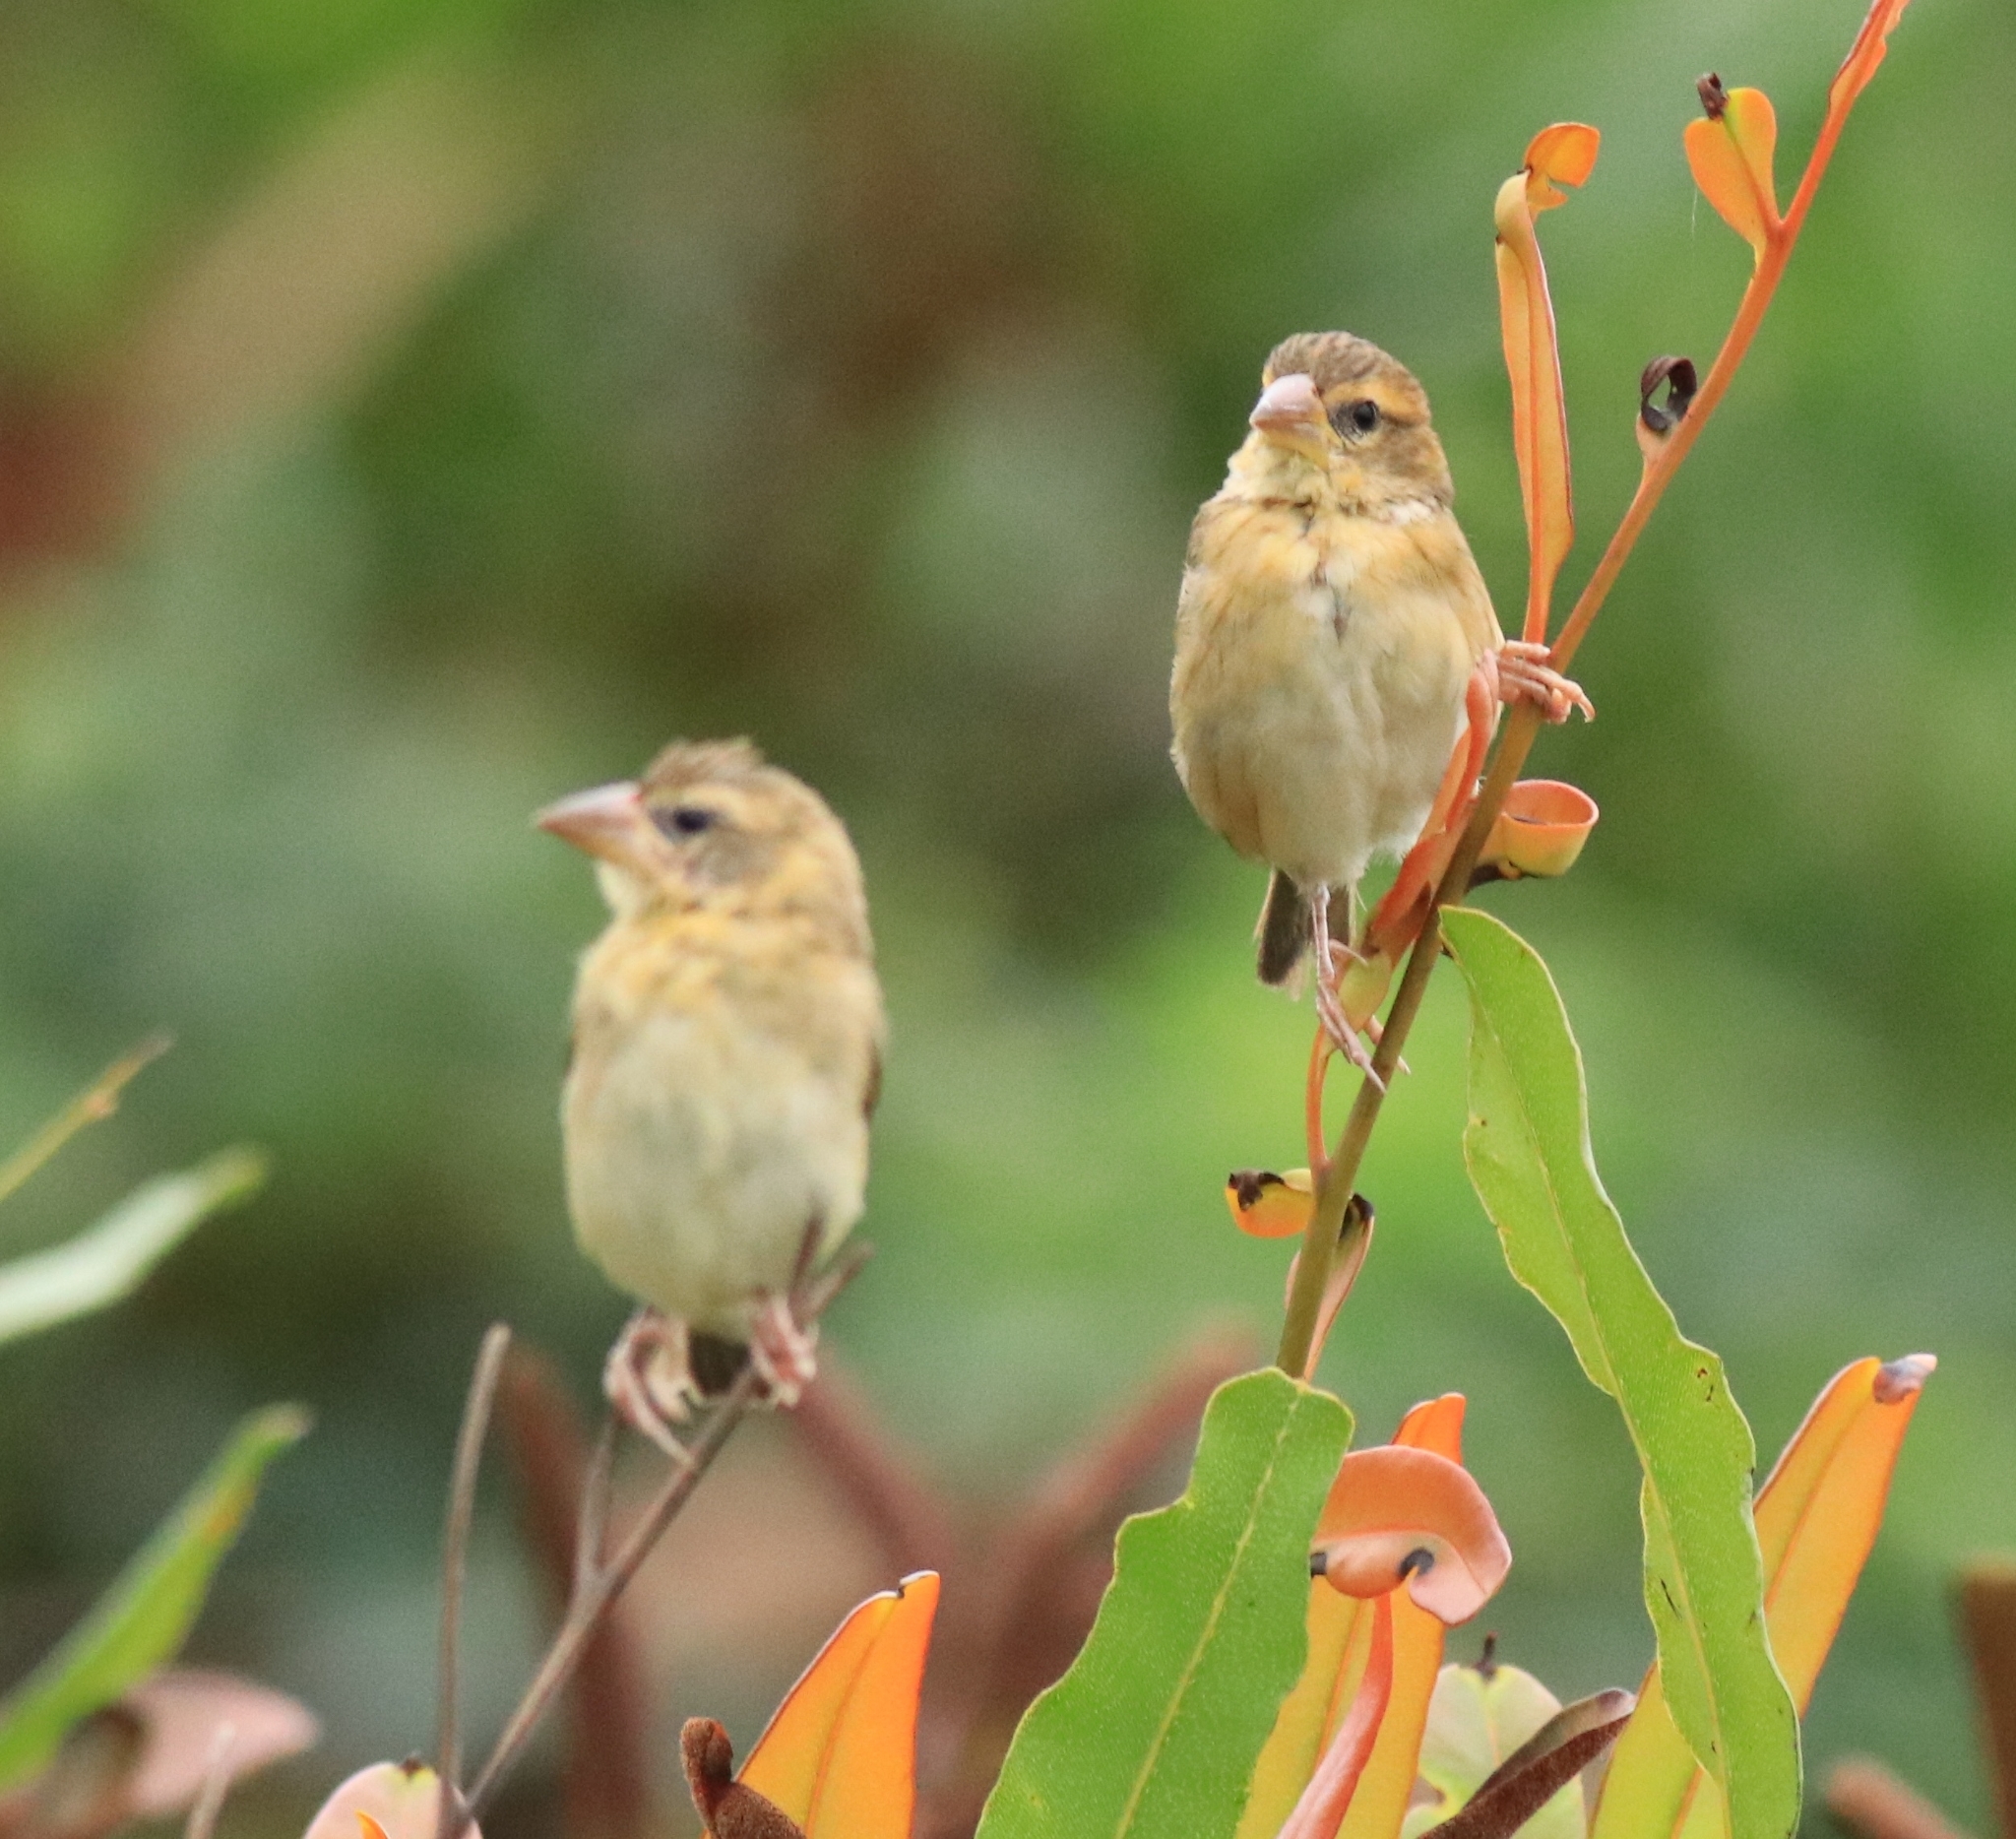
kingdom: Animalia
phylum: Chordata
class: Aves
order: Passeriformes
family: Ploceidae
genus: Ploceus
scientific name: Ploceus philippinus
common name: Baya weaver
